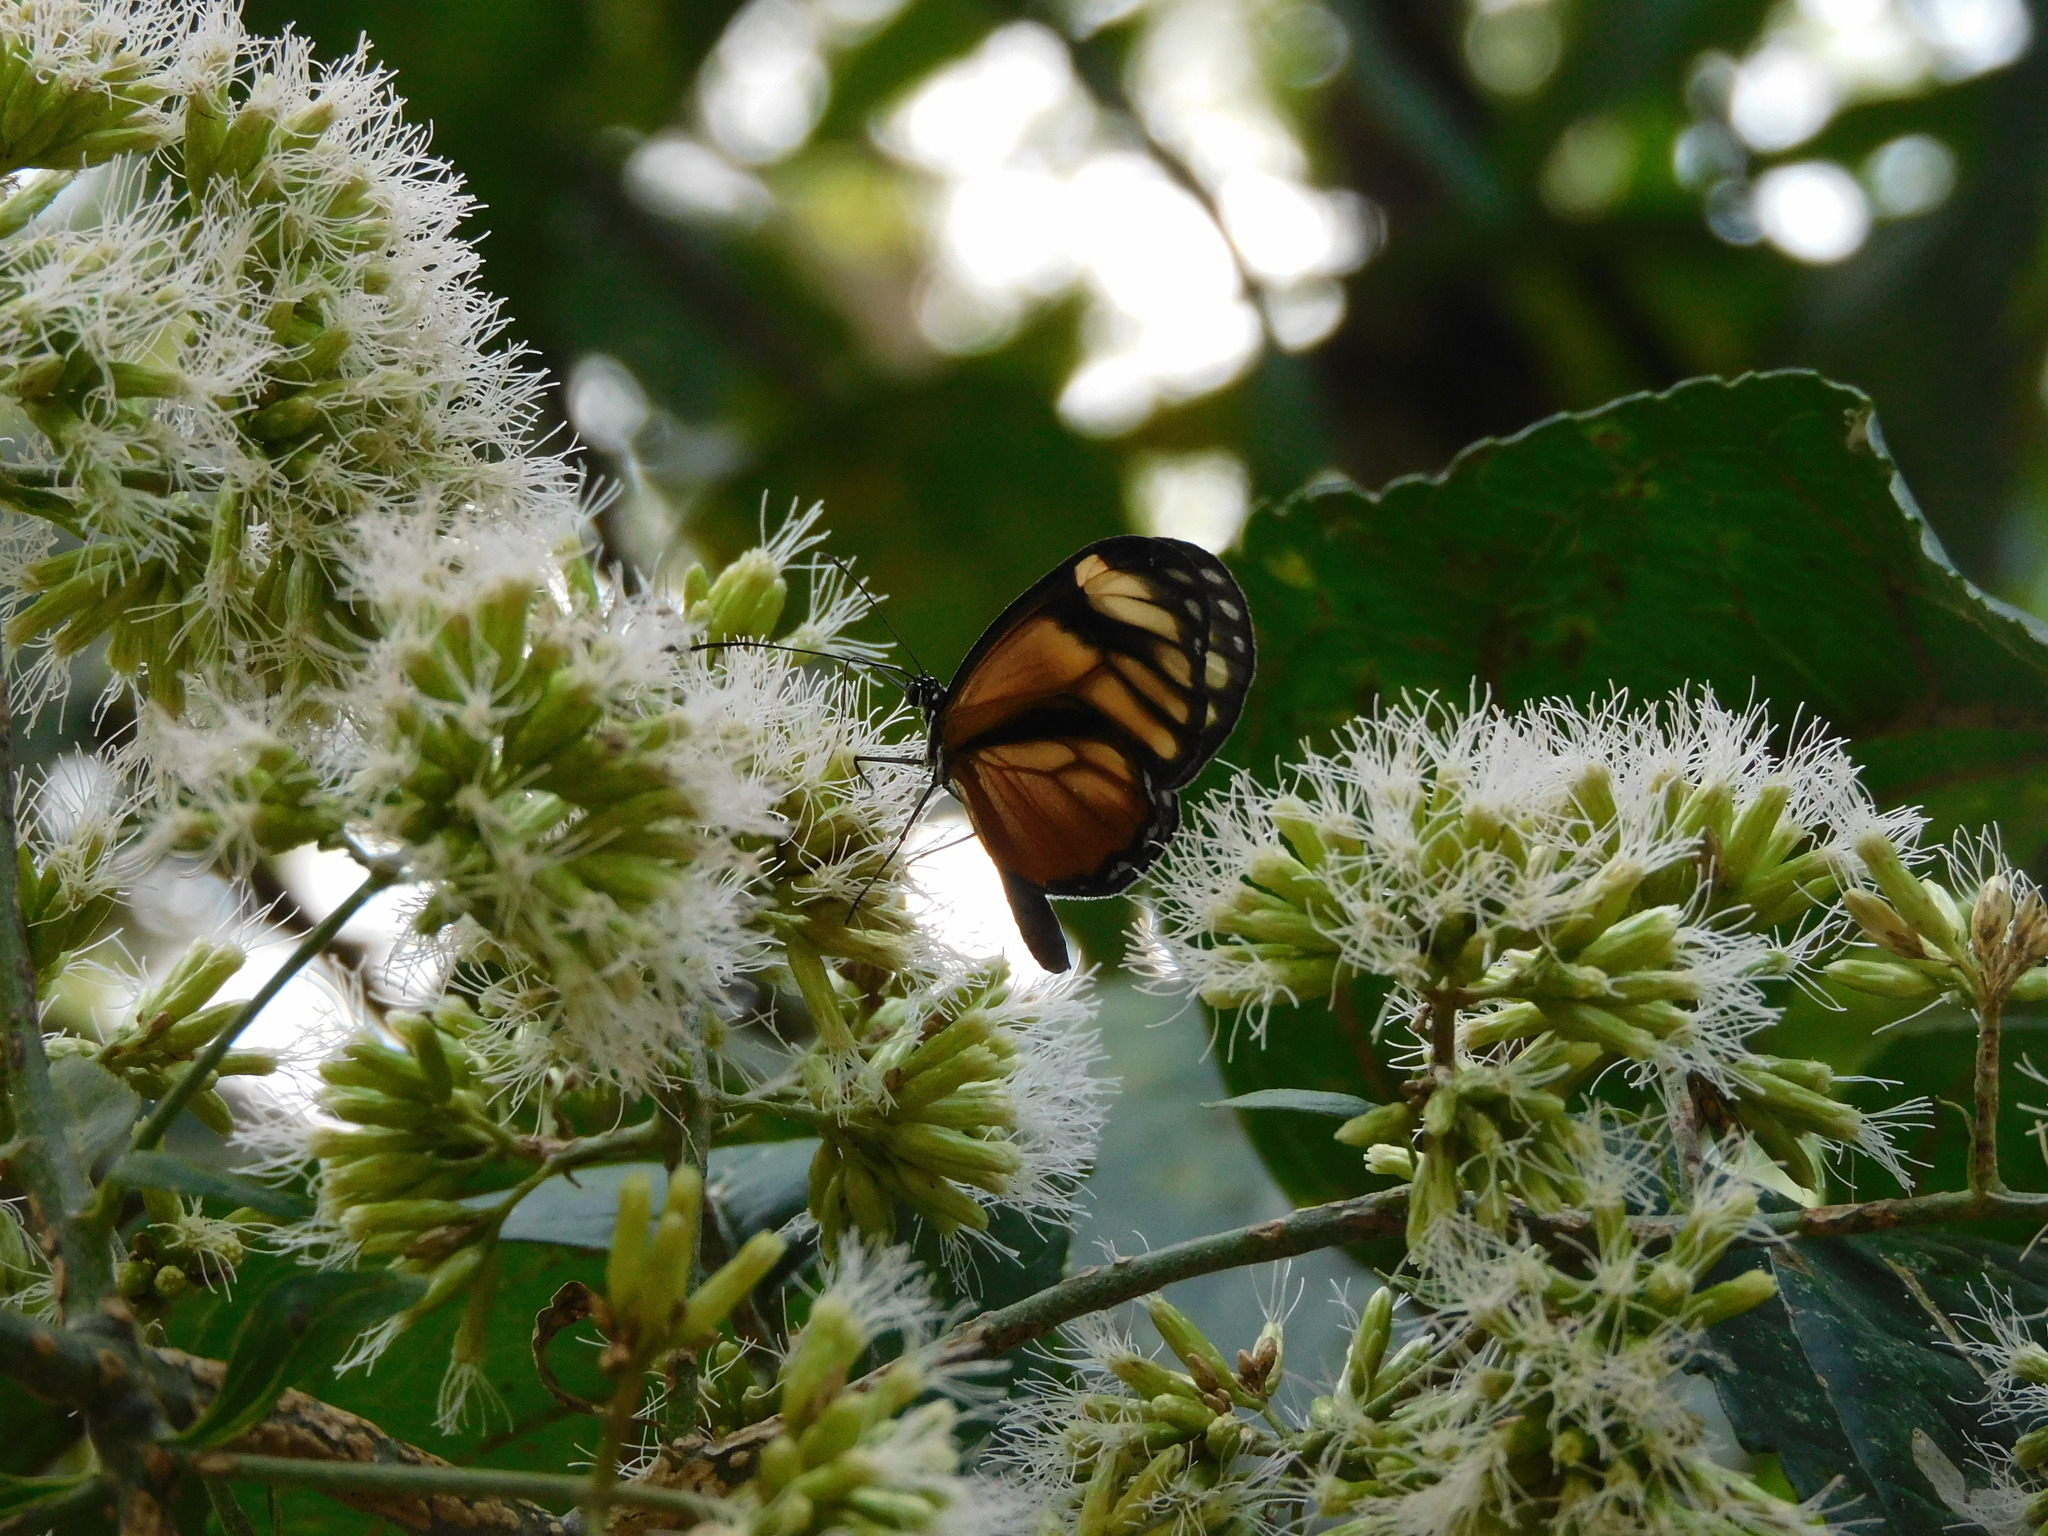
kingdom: Animalia
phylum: Arthropoda
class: Insecta
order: Lepidoptera
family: Nymphalidae
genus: Hypoleria
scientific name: Hypoleria ocalea
